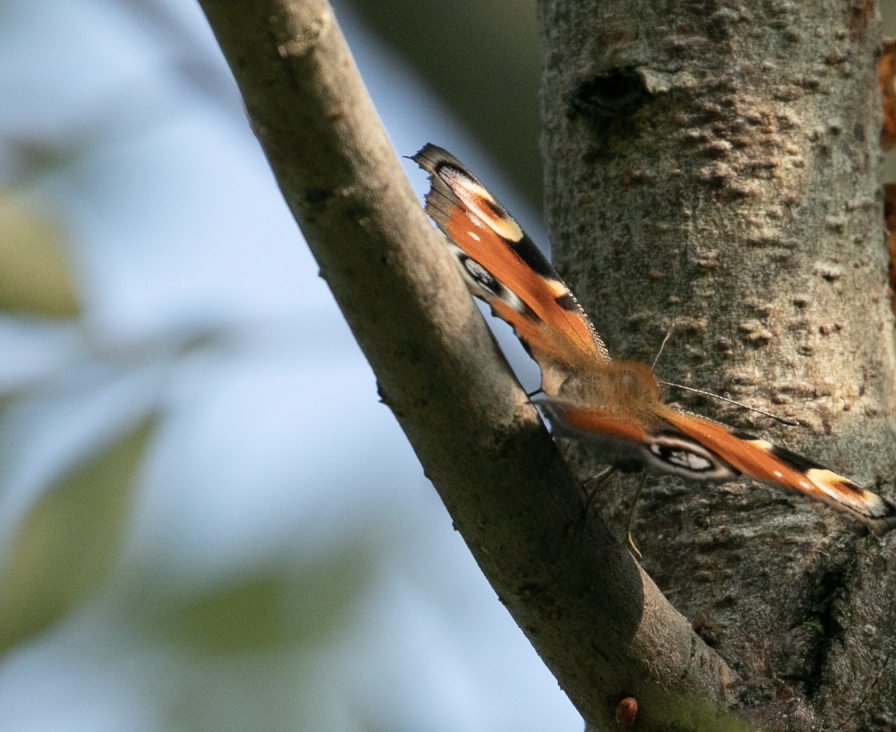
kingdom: Animalia
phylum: Arthropoda
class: Insecta
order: Lepidoptera
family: Nymphalidae
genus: Aglais
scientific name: Aglais io
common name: Peacock
